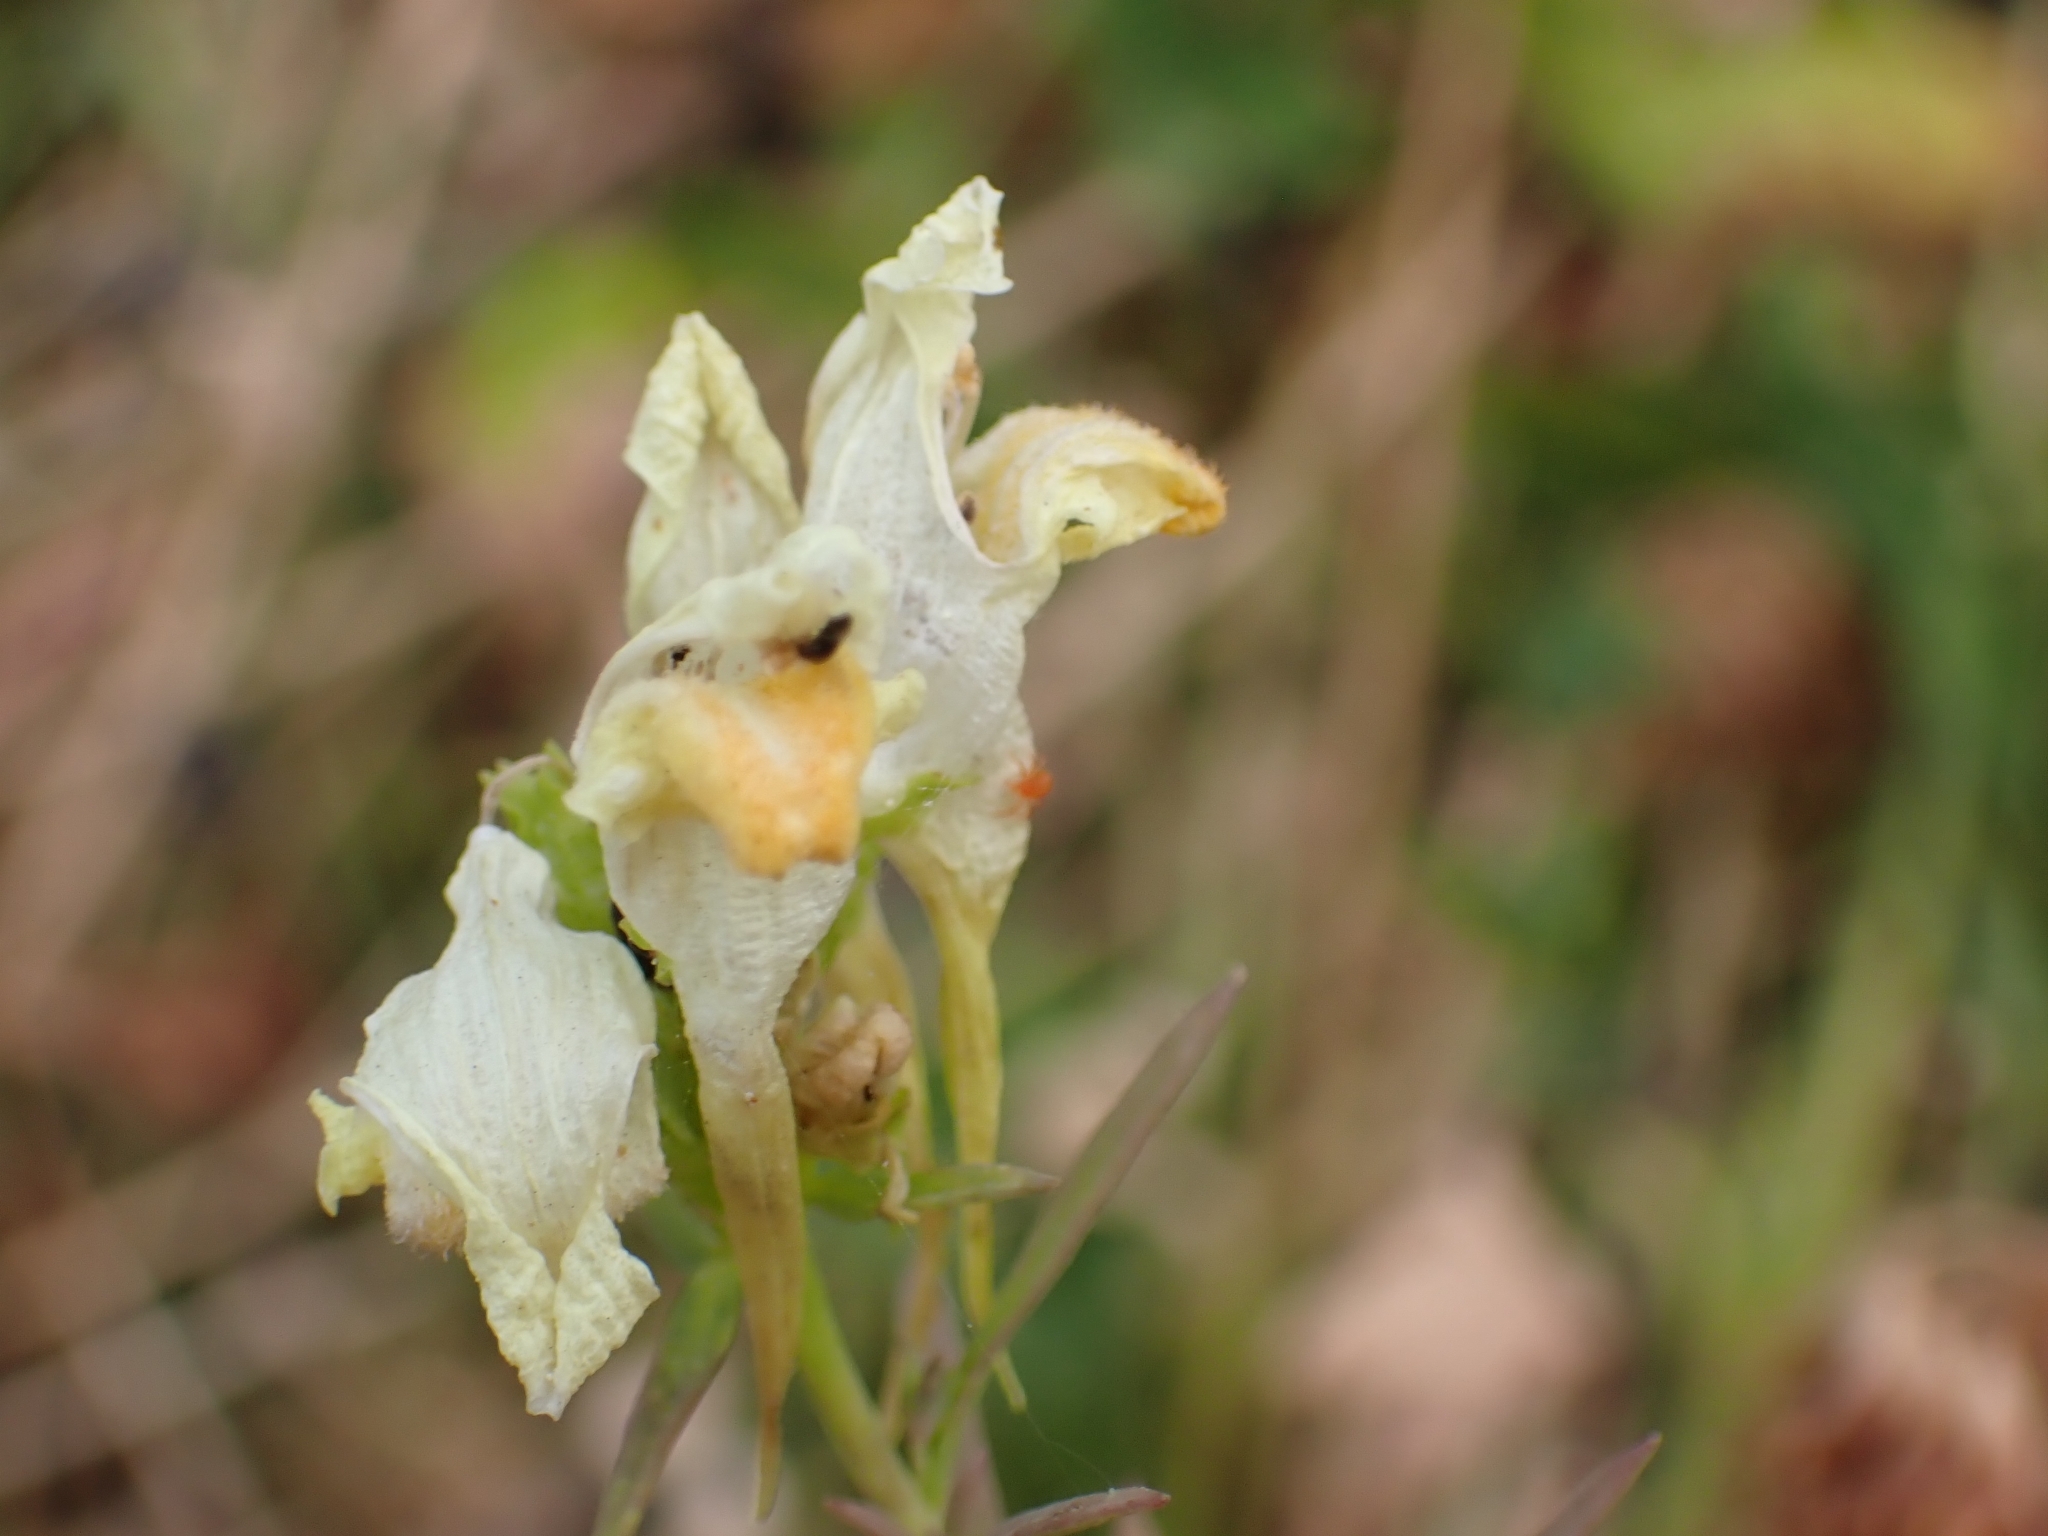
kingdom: Plantae
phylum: Tracheophyta
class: Magnoliopsida
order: Lamiales
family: Plantaginaceae
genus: Linaria
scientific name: Linaria vulgaris
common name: Butter and eggs
